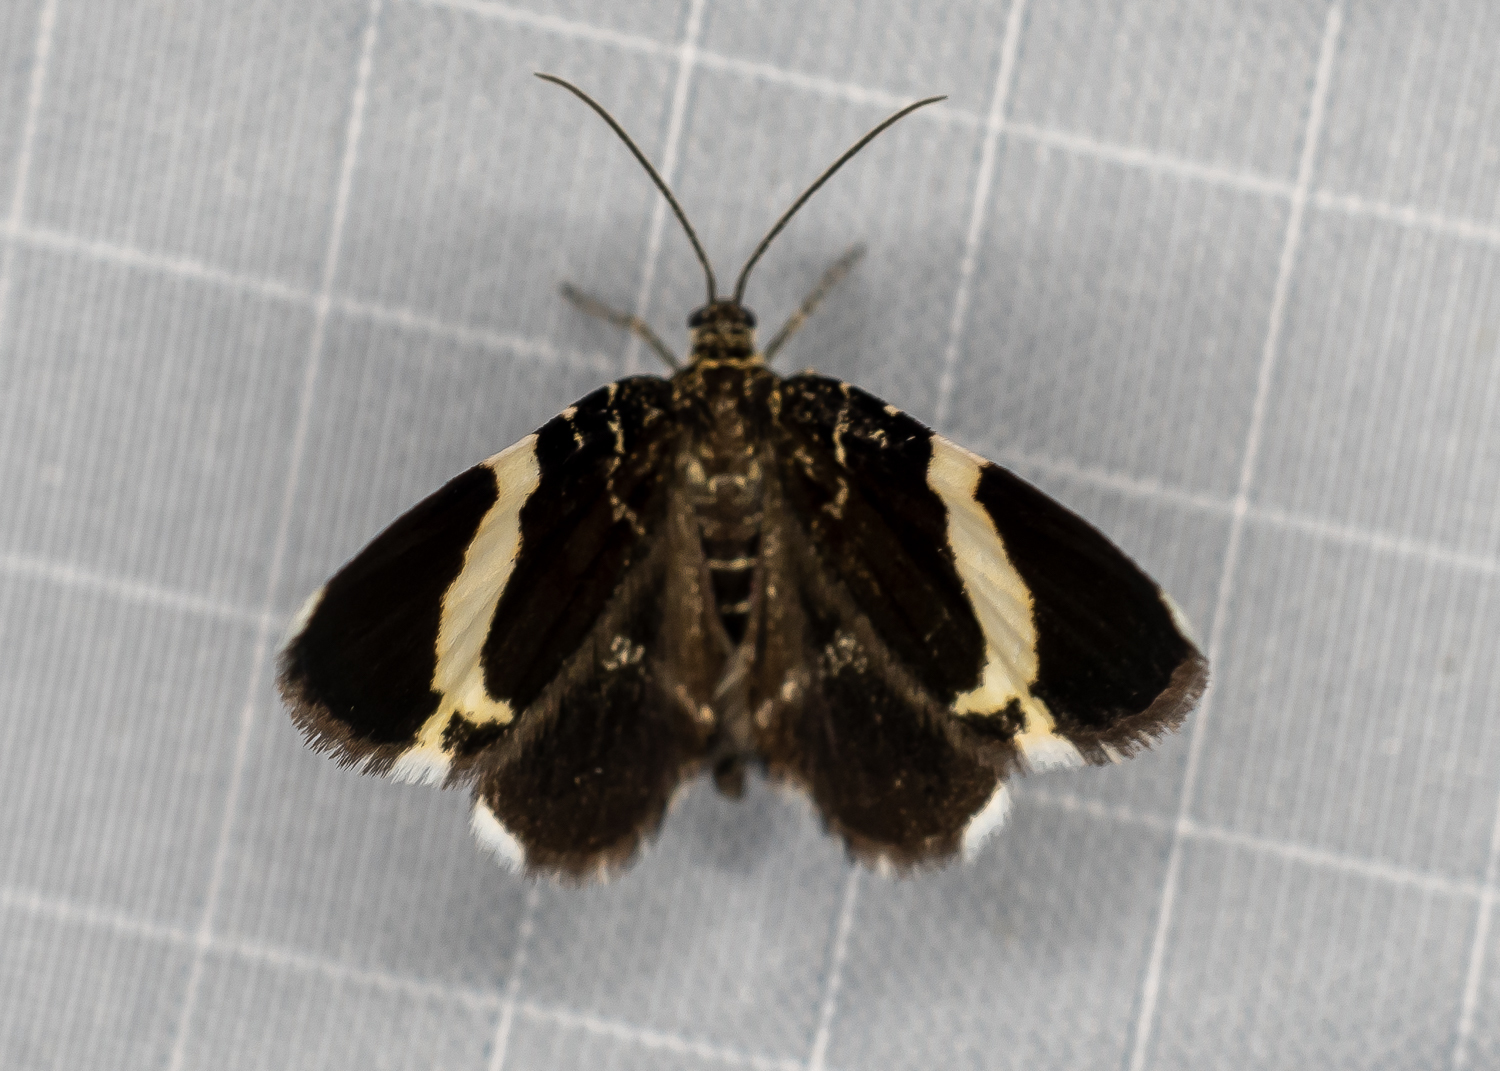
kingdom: Animalia
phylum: Arthropoda
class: Insecta
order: Lepidoptera
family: Geometridae
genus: Trichodezia
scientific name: Trichodezia albovittata
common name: White striped black
